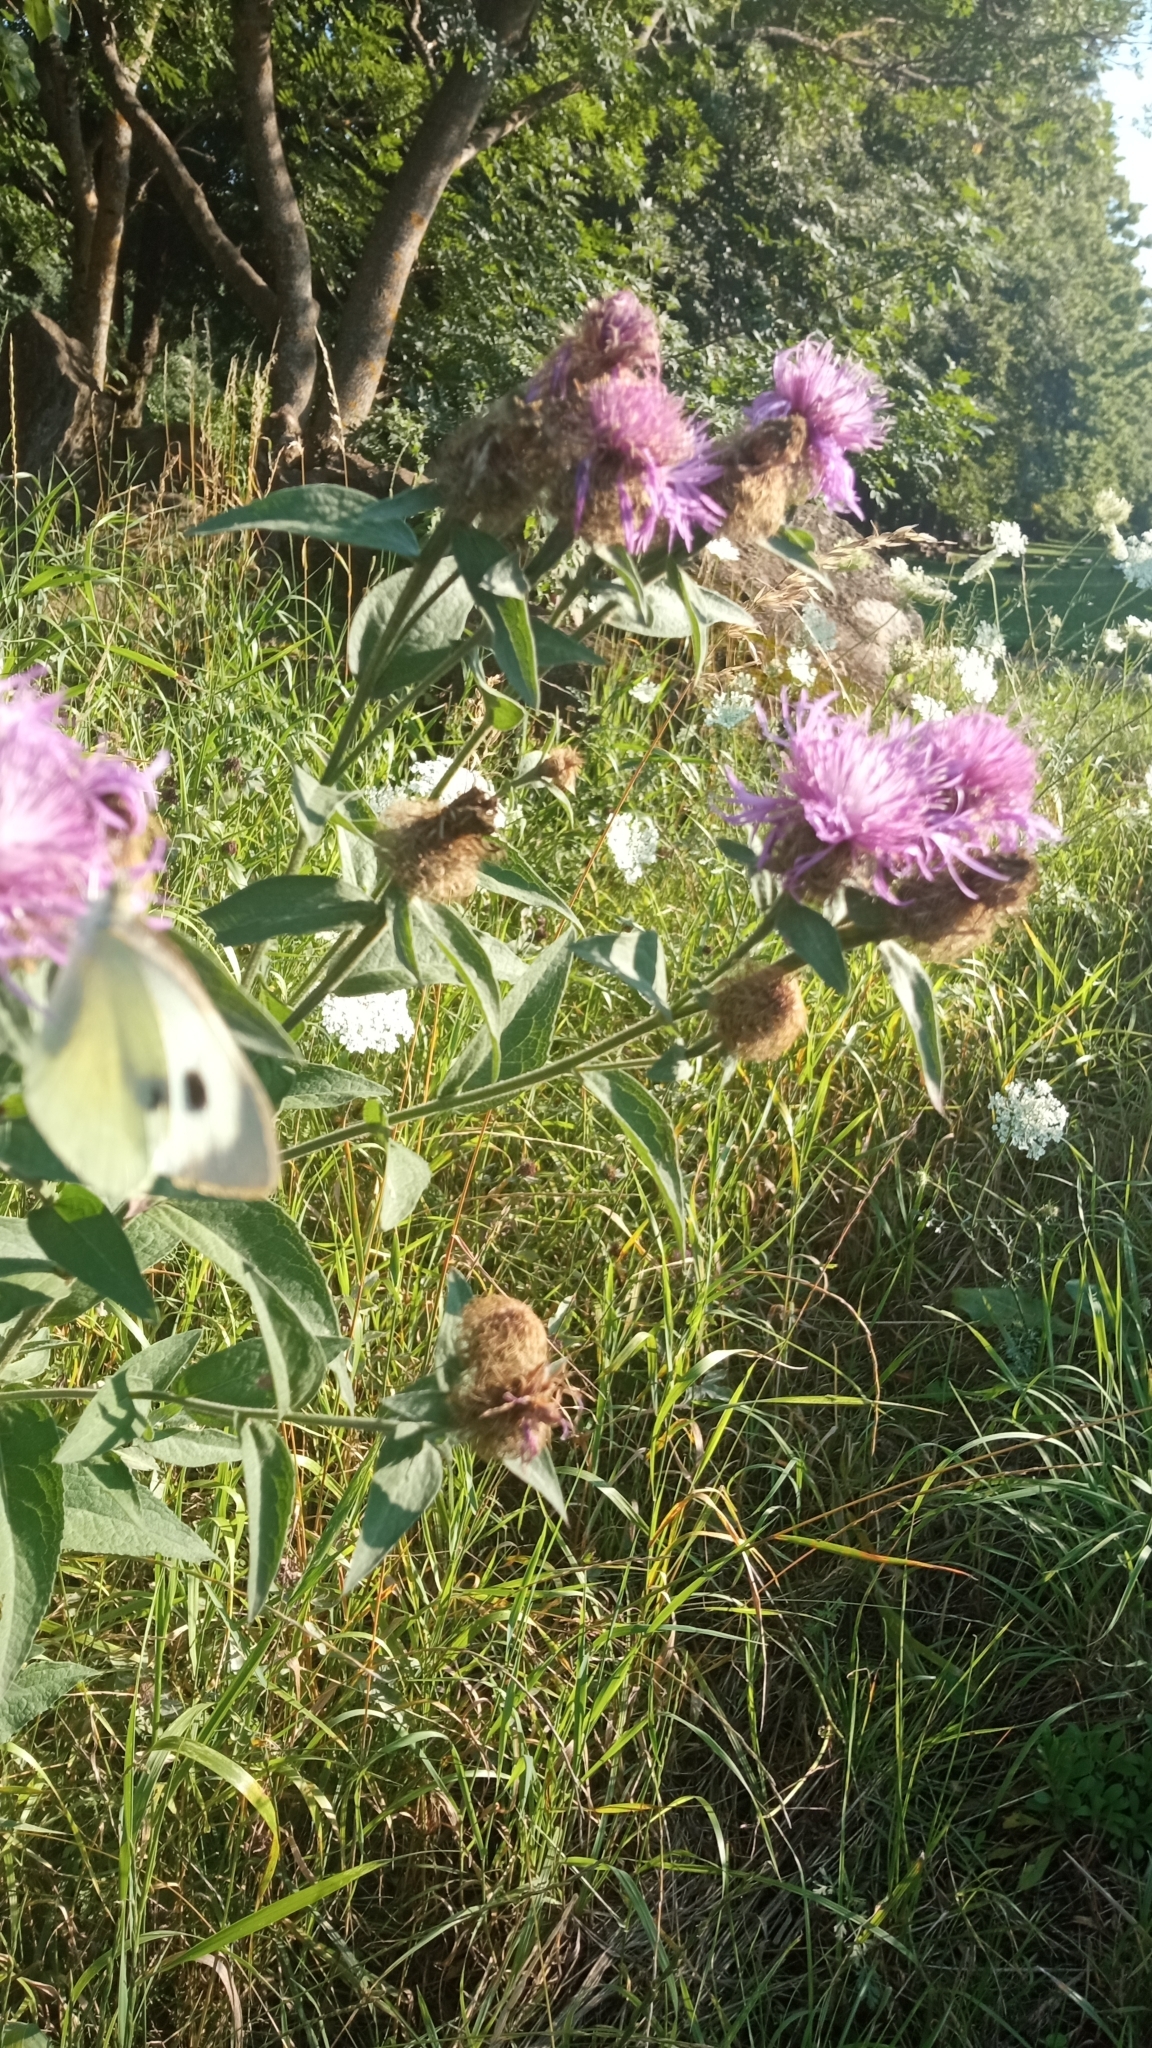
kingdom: Animalia
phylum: Arthropoda
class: Insecta
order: Lepidoptera
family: Pieridae
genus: Pieris
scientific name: Pieris brassicae
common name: Large white
